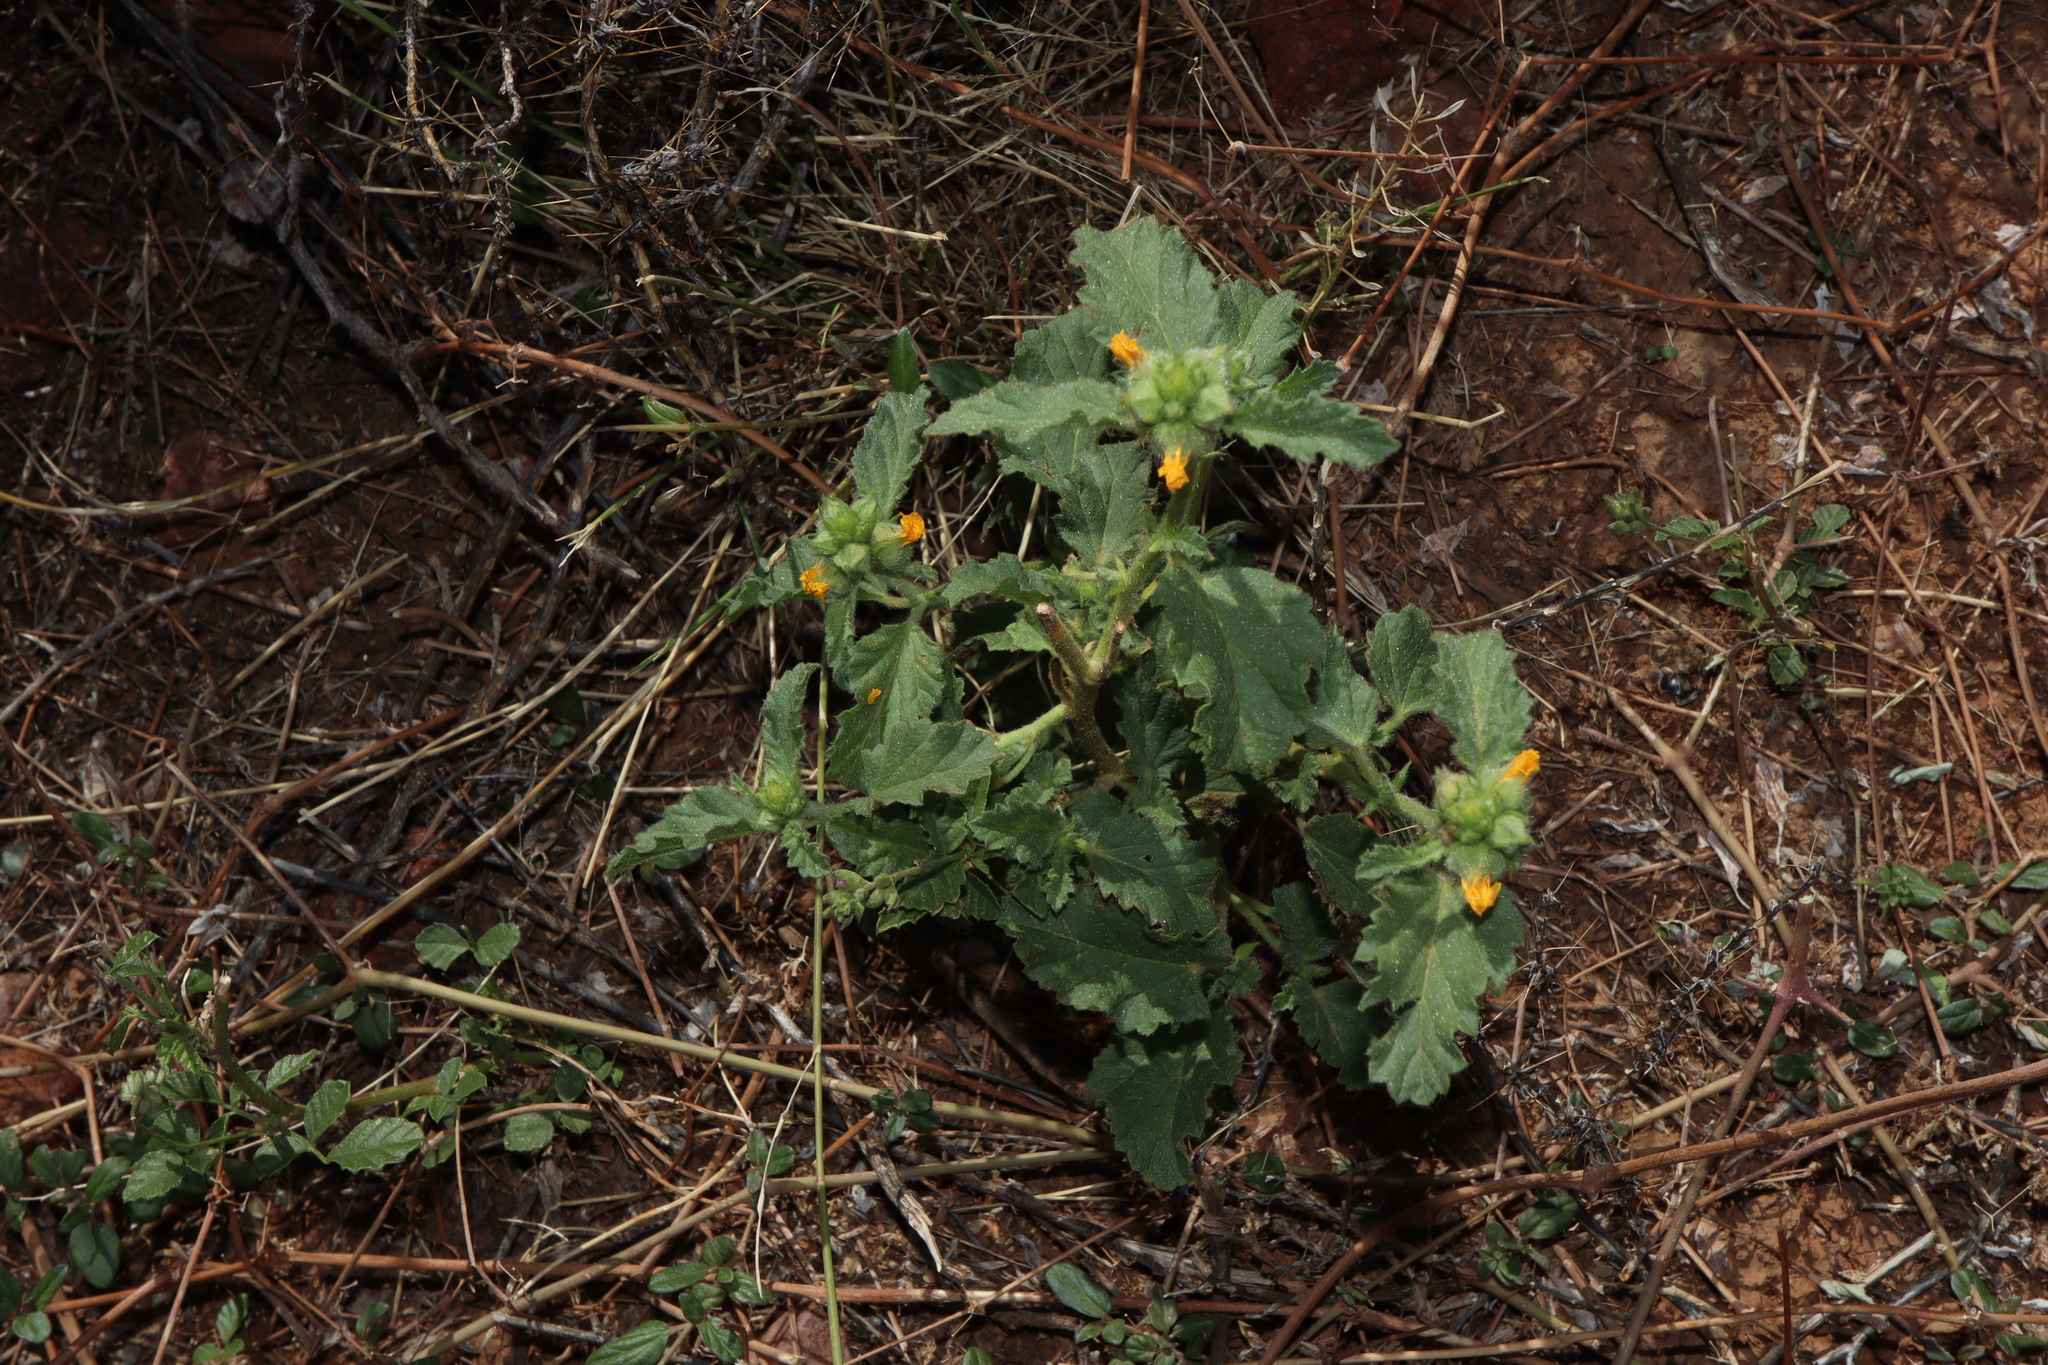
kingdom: Plantae
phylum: Tracheophyta
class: Magnoliopsida
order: Malvales
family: Malvaceae
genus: Malvastrum
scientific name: Malvastrum americanum
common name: Spiked malvastrum
